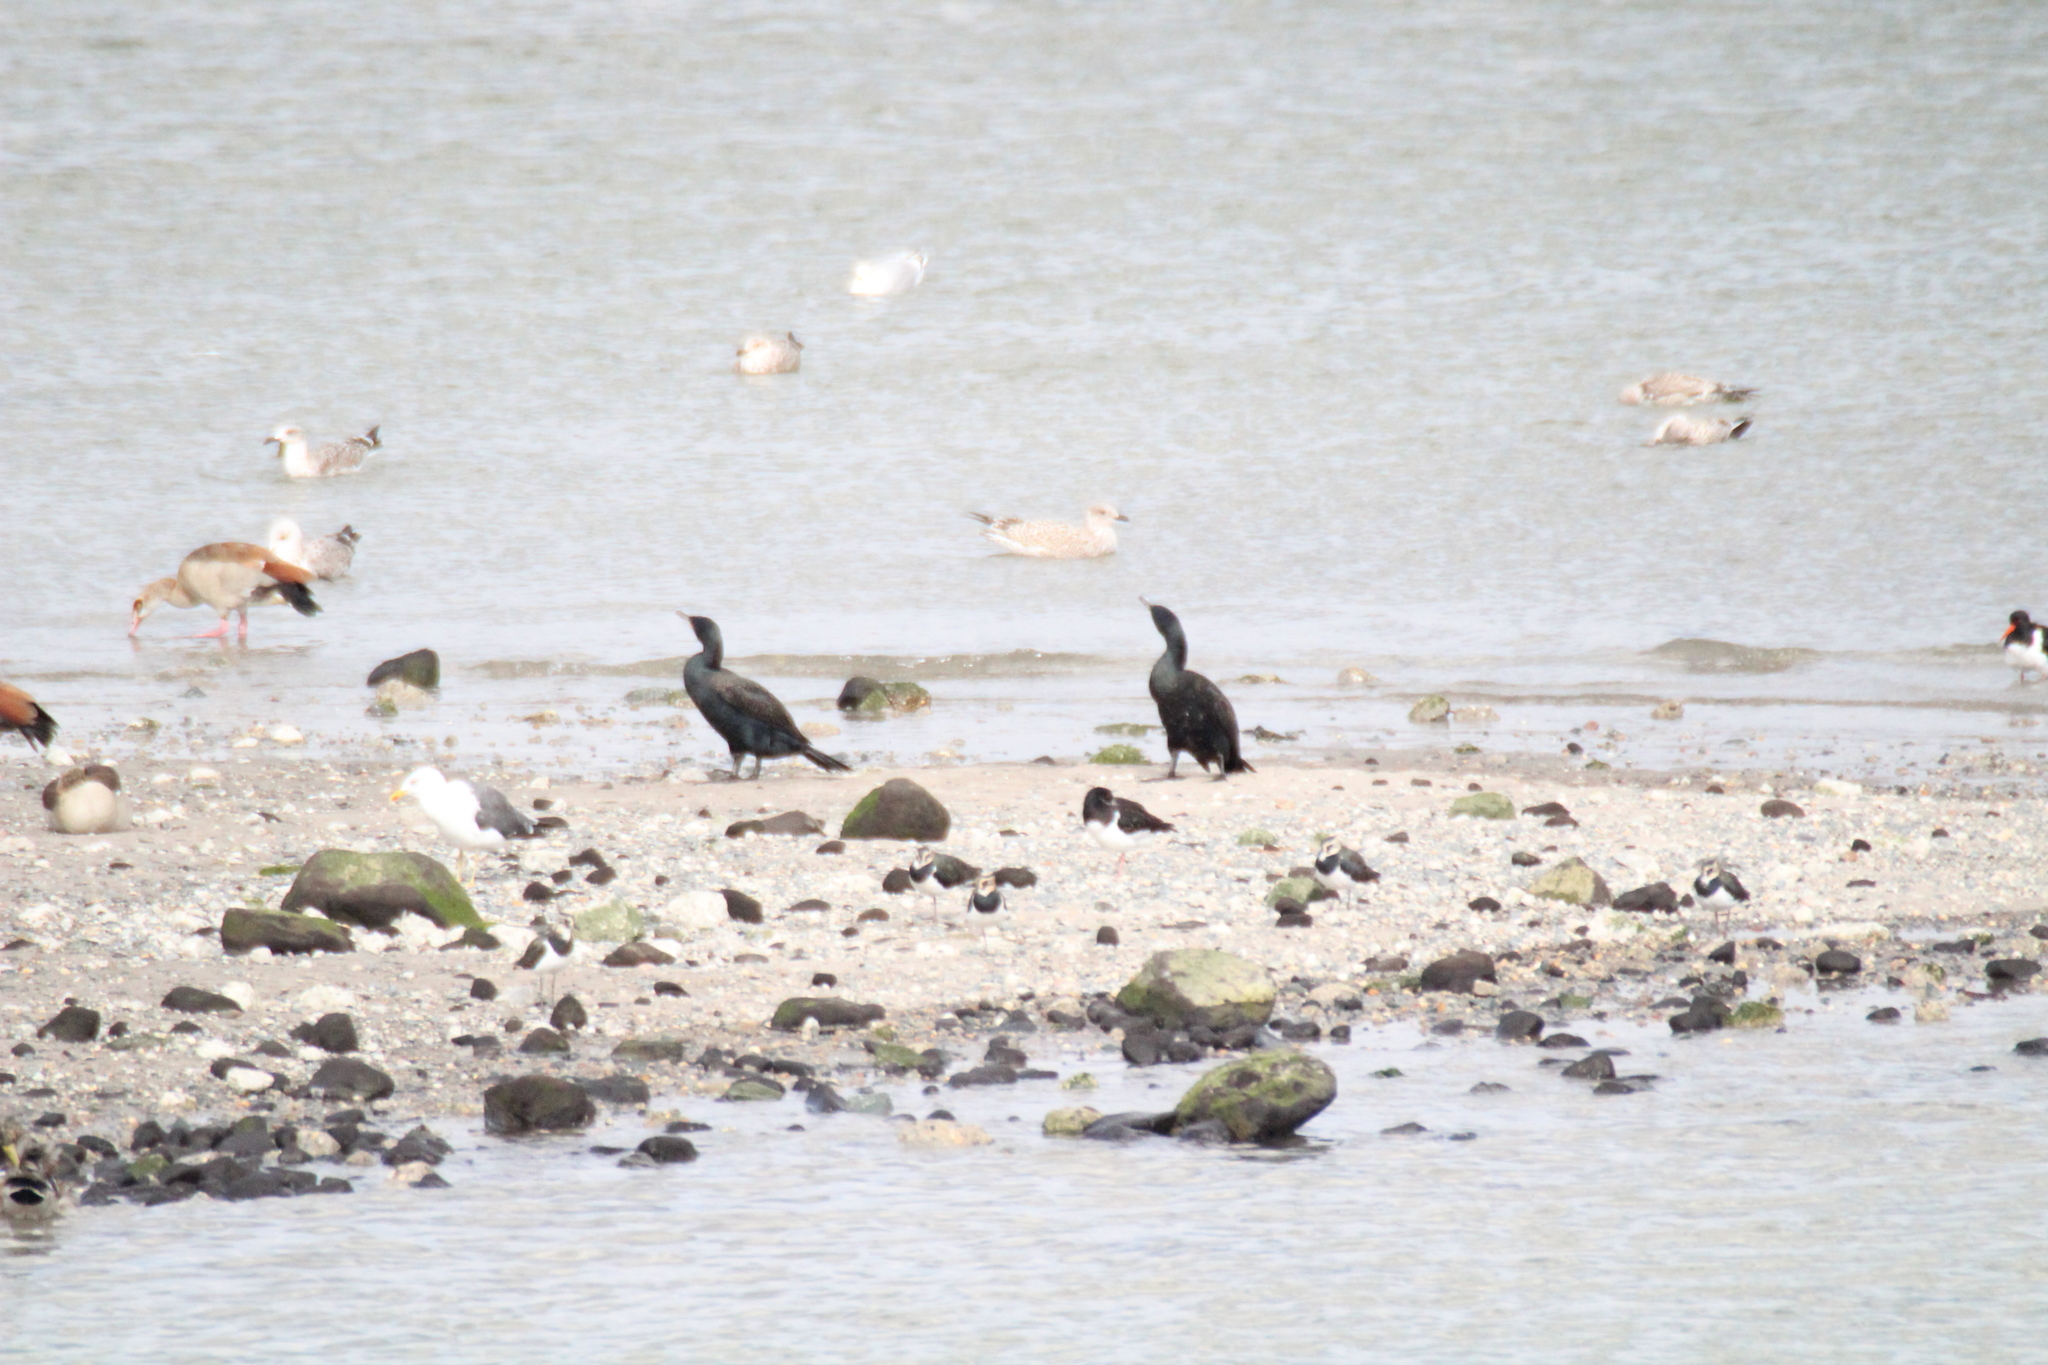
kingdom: Animalia
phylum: Chordata
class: Aves
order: Suliformes
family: Phalacrocoracidae
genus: Phalacrocorax
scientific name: Phalacrocorax carbo
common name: Great cormorant
